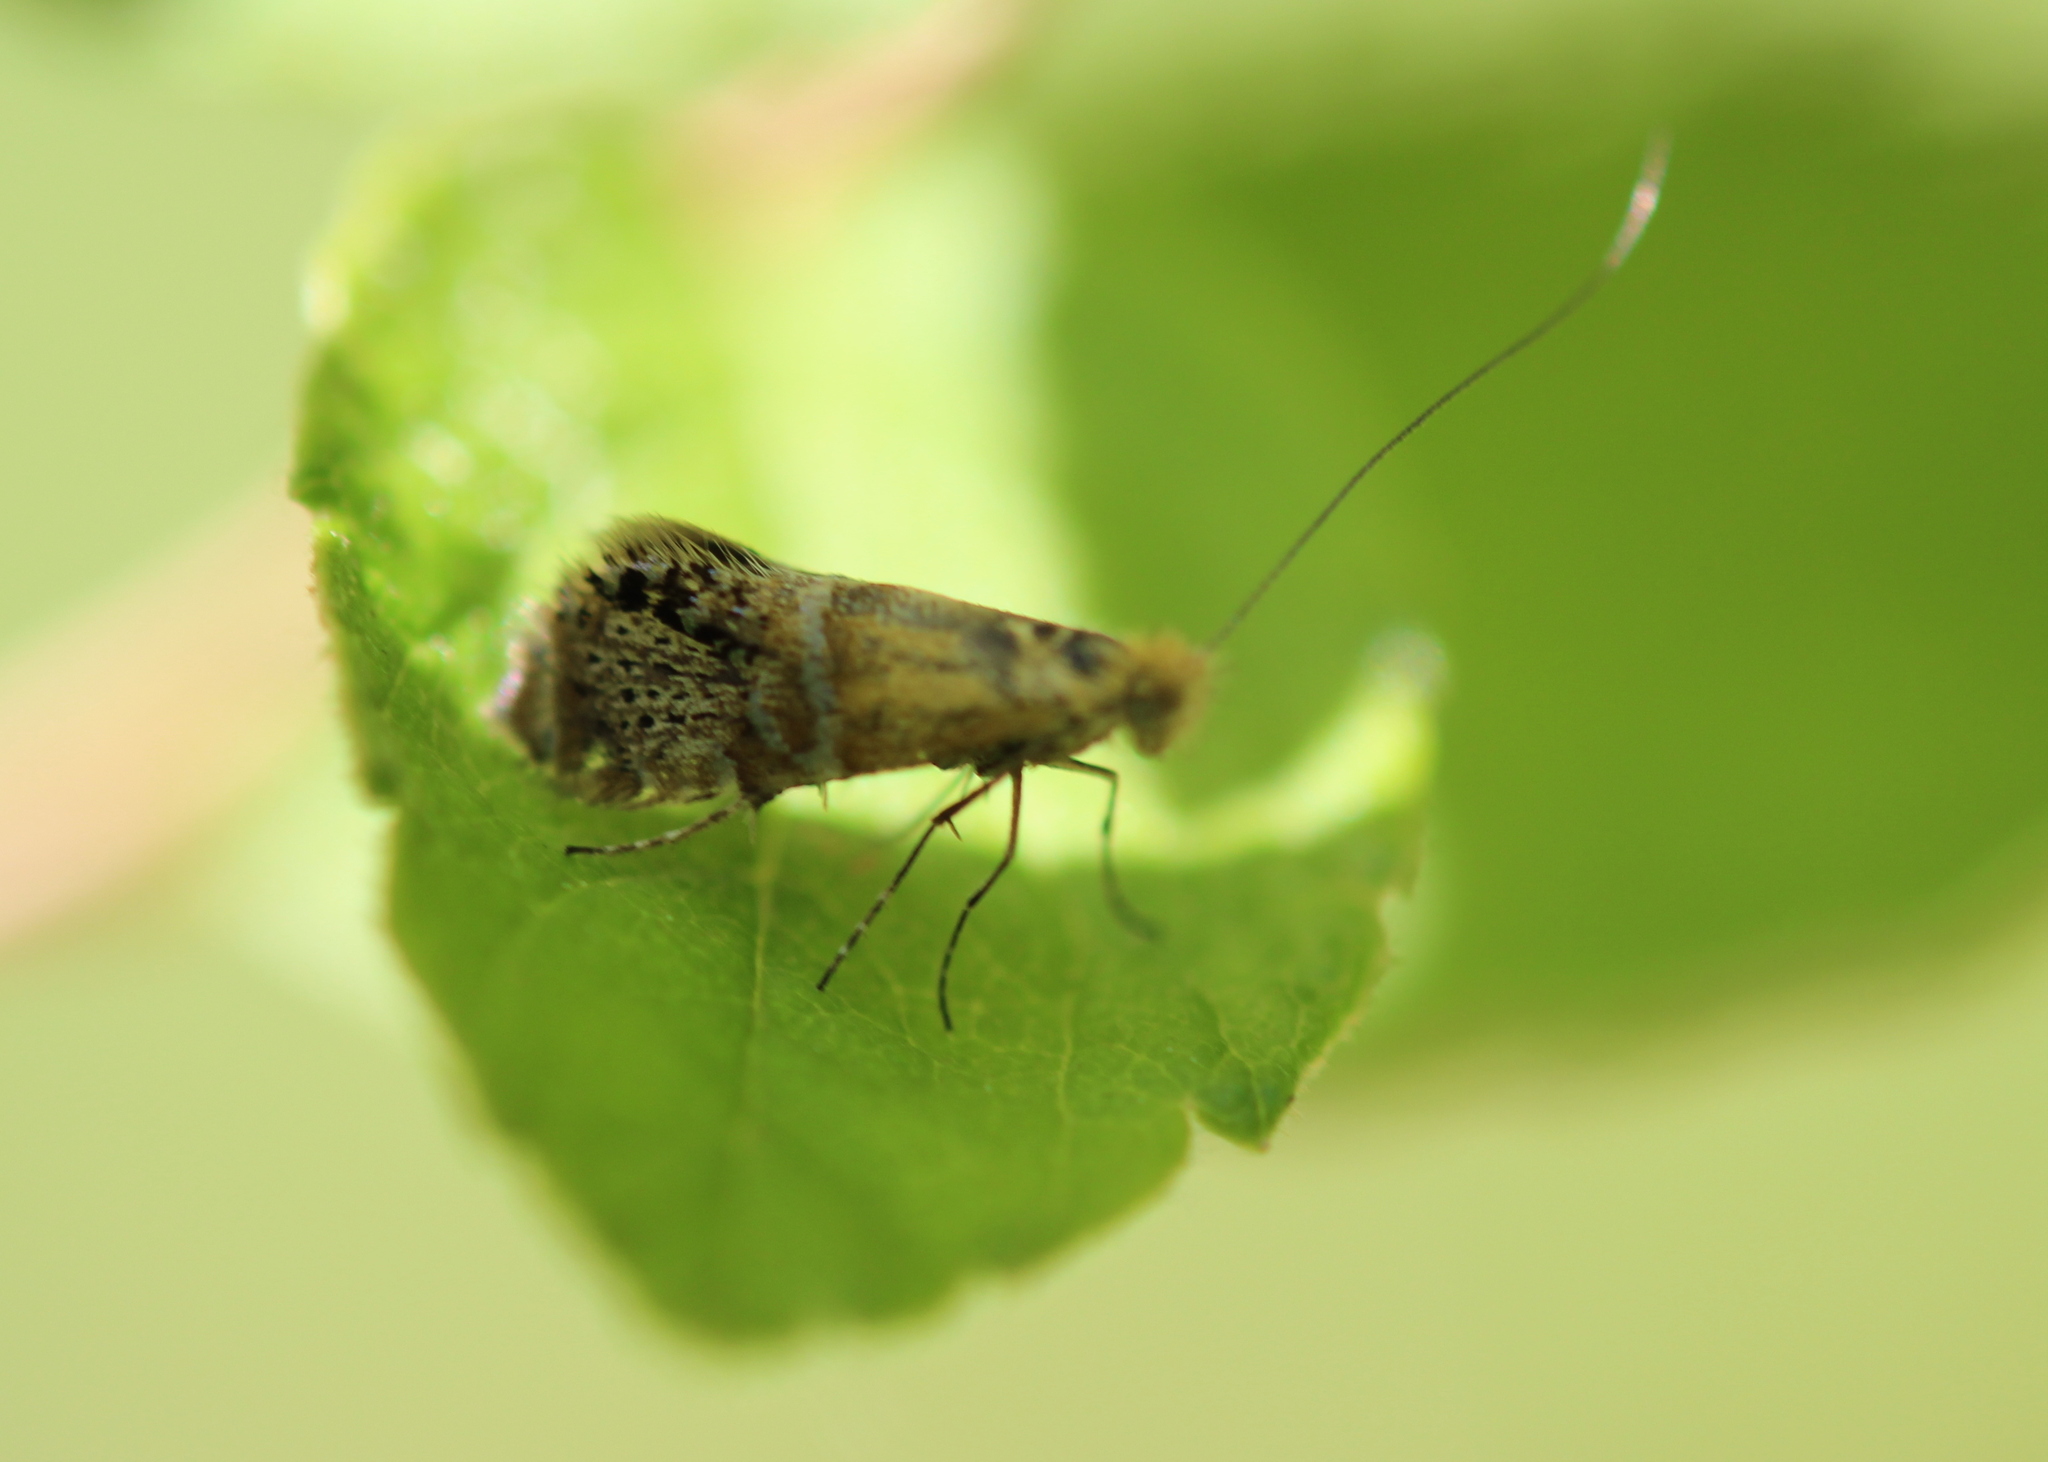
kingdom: Animalia
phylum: Arthropoda
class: Insecta
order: Lepidoptera
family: Adelidae
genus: Adela
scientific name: Adela ridingsella
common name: Ridings' fairy moth
